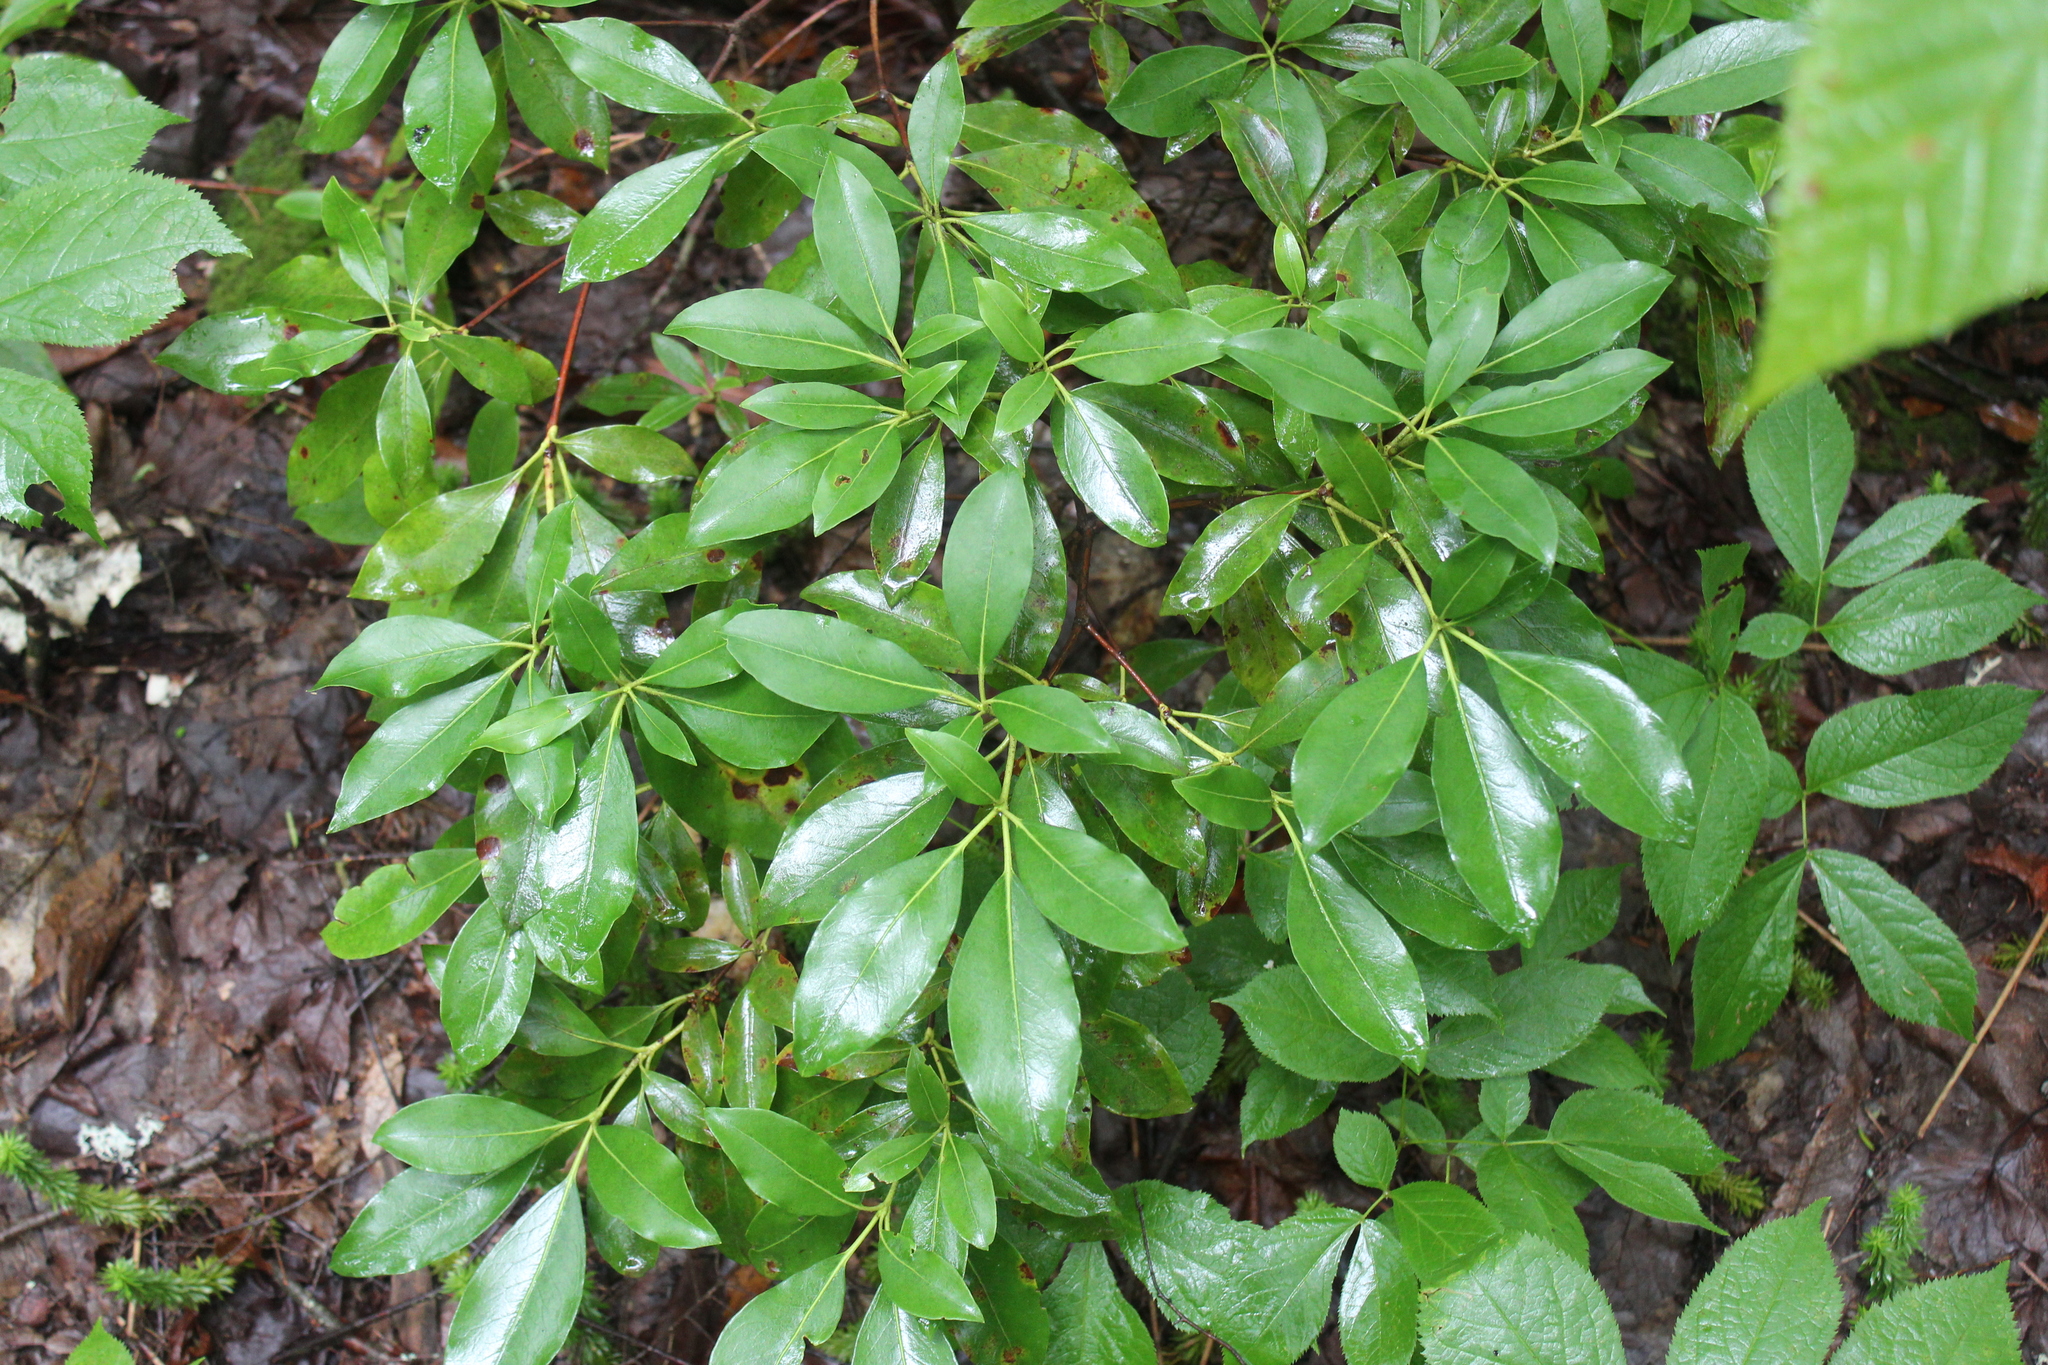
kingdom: Plantae
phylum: Tracheophyta
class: Magnoliopsida
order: Ericales
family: Ericaceae
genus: Kalmia
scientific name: Kalmia latifolia
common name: Mountain-laurel
